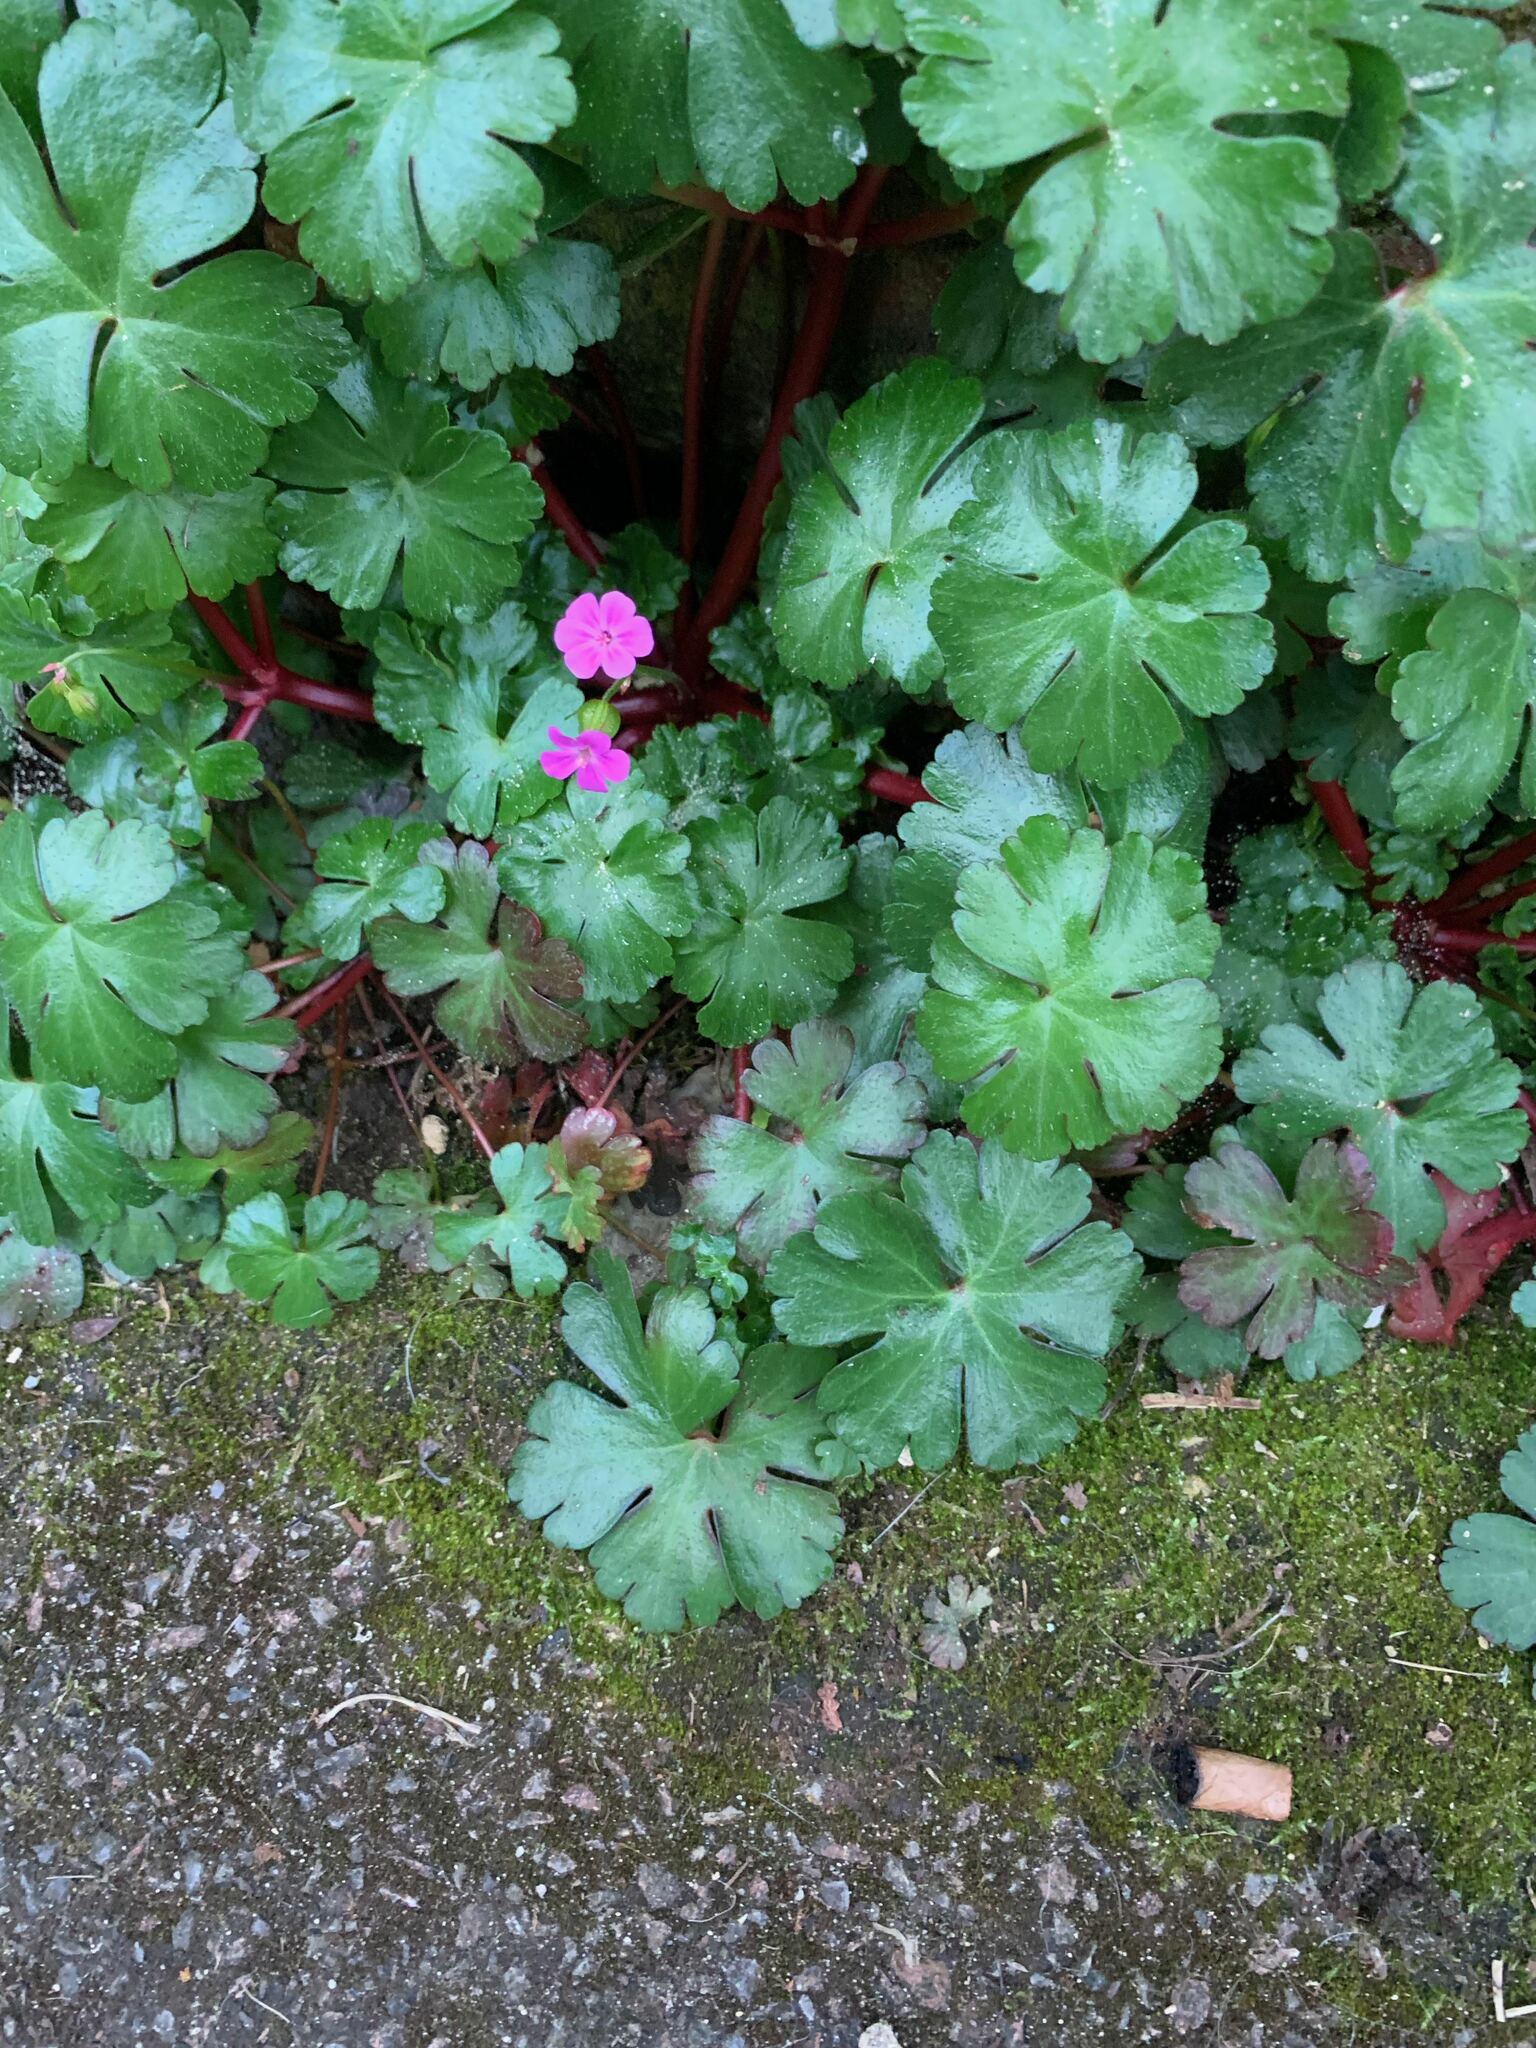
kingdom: Plantae
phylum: Tracheophyta
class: Magnoliopsida
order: Geraniales
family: Geraniaceae
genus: Geranium
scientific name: Geranium lucidum
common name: Shining crane's-bill
